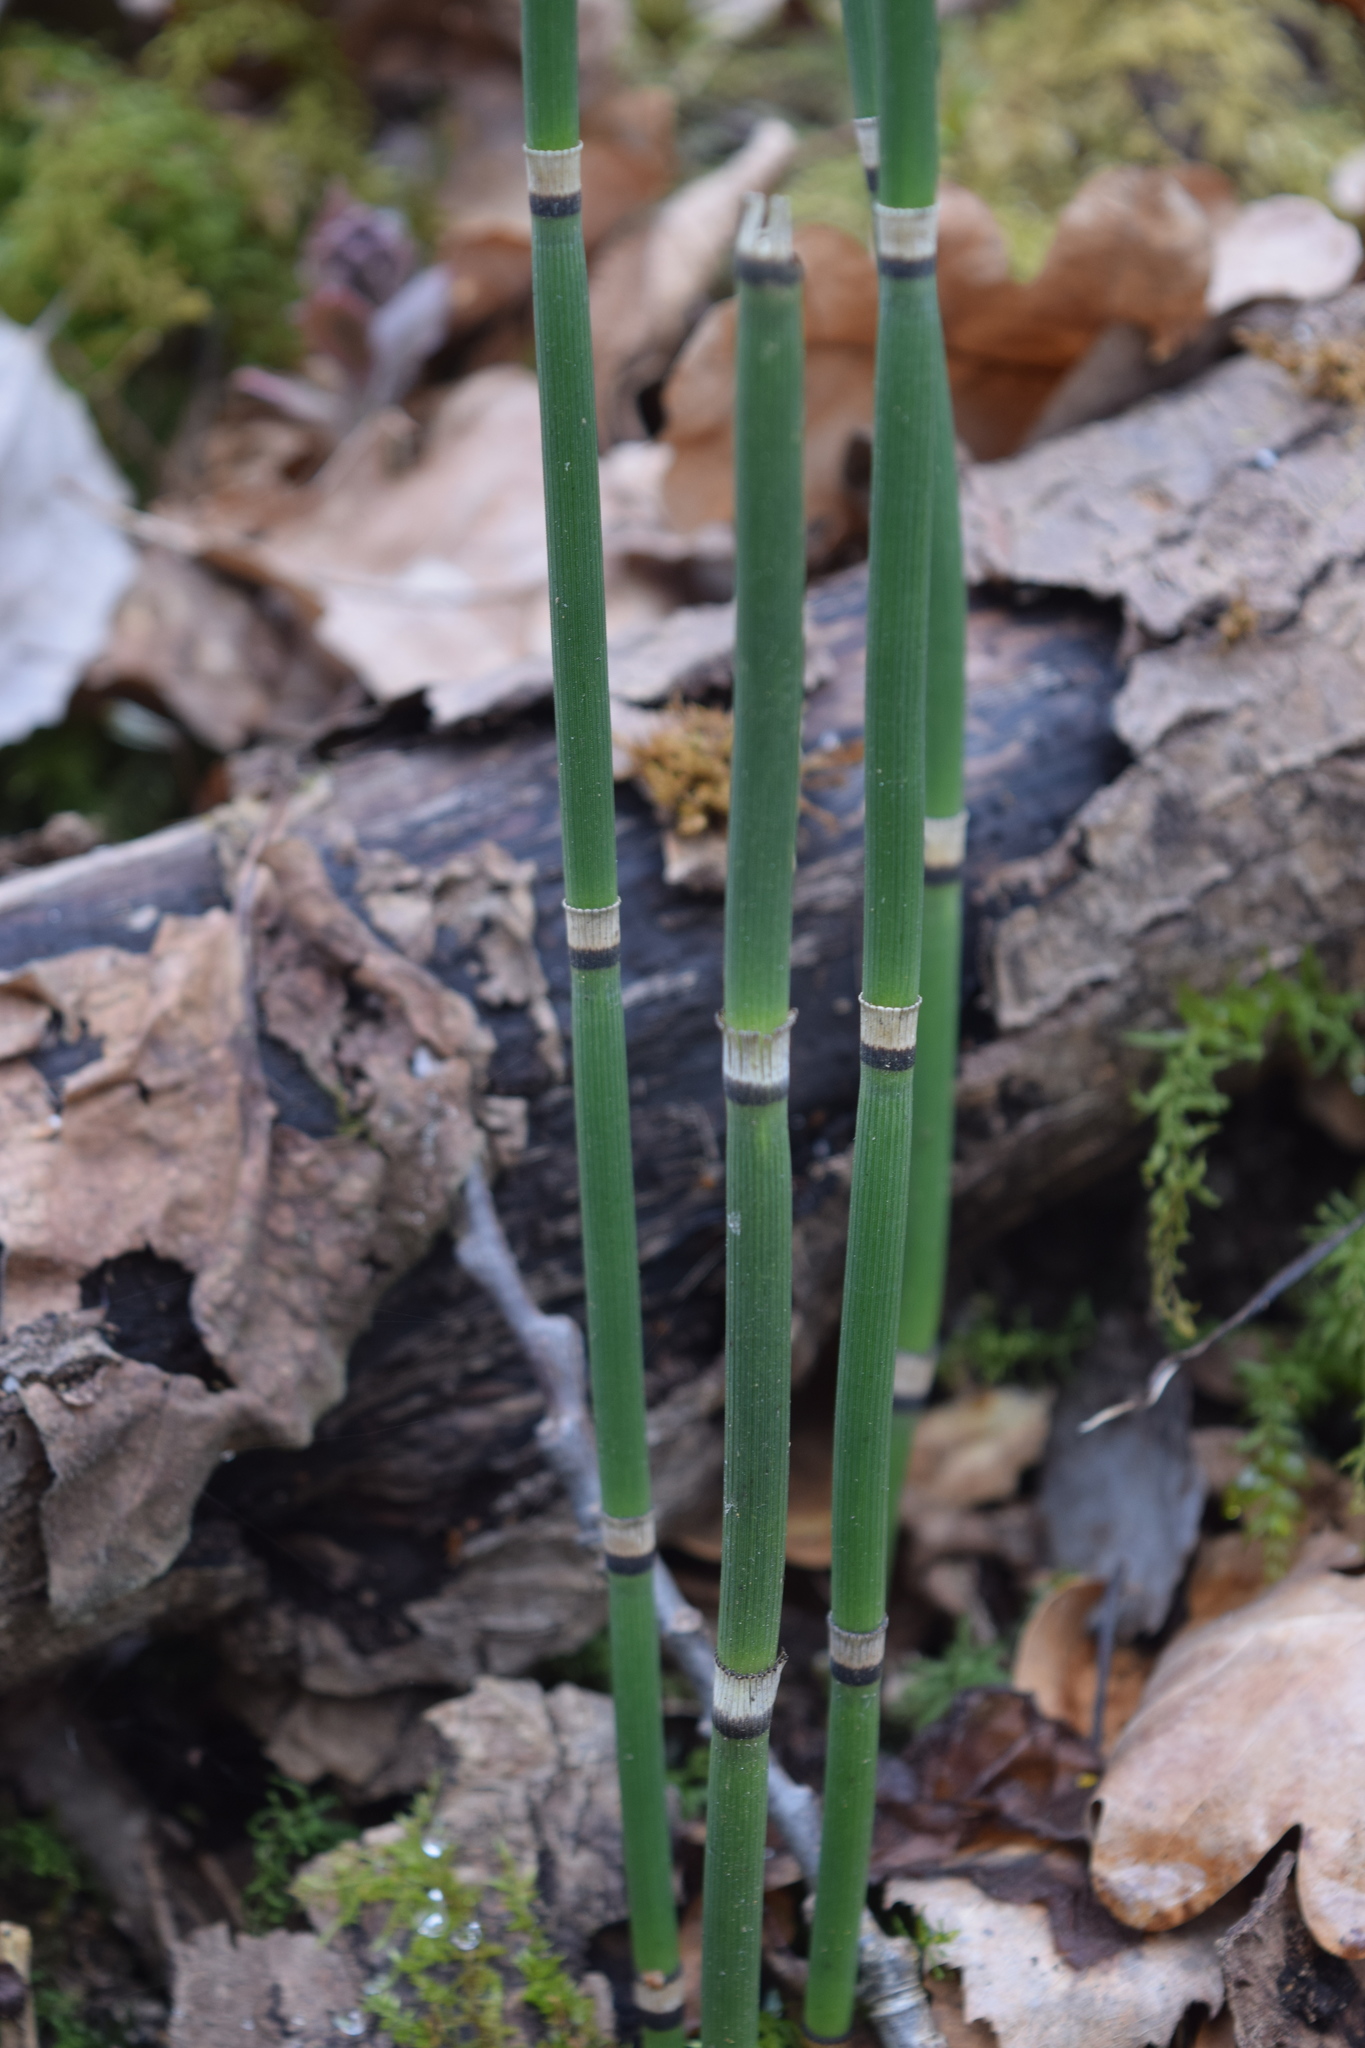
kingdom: Plantae
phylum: Tracheophyta
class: Polypodiopsida
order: Equisetales
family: Equisetaceae
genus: Equisetum
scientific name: Equisetum hyemale
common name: Rough horsetail
